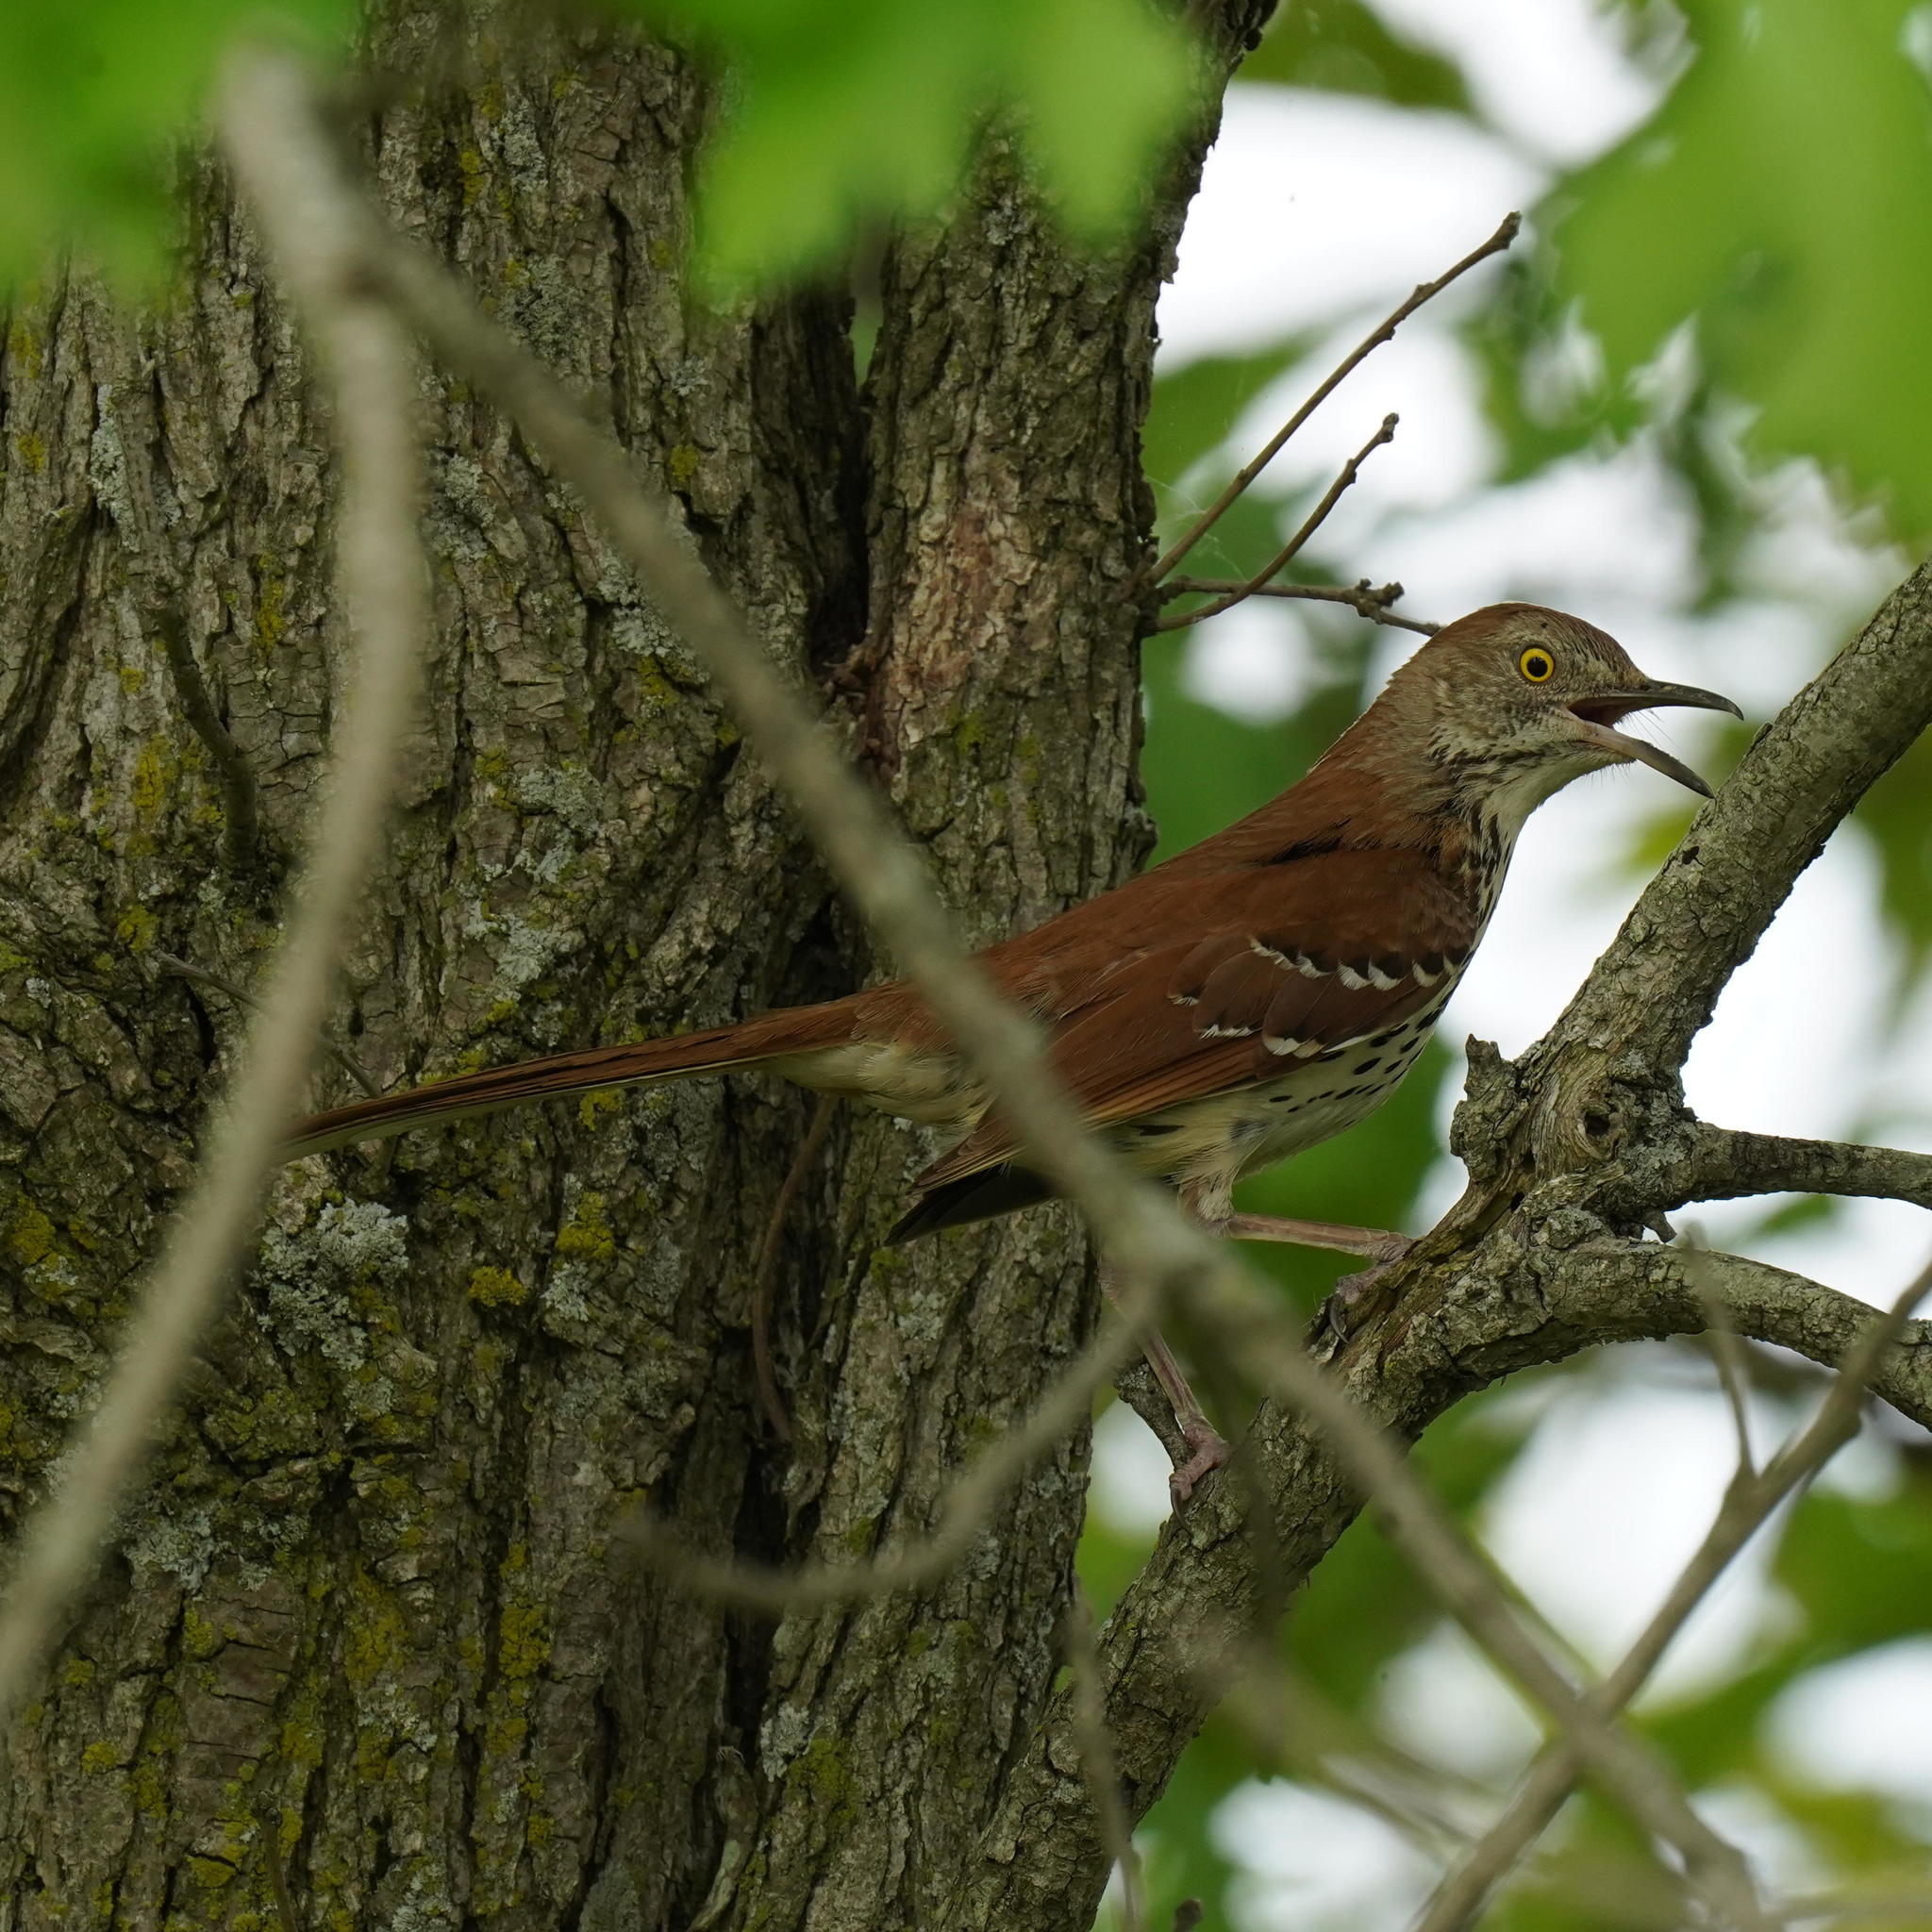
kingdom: Animalia
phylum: Chordata
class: Aves
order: Passeriformes
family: Mimidae
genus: Toxostoma
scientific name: Toxostoma rufum
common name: Brown thrasher
